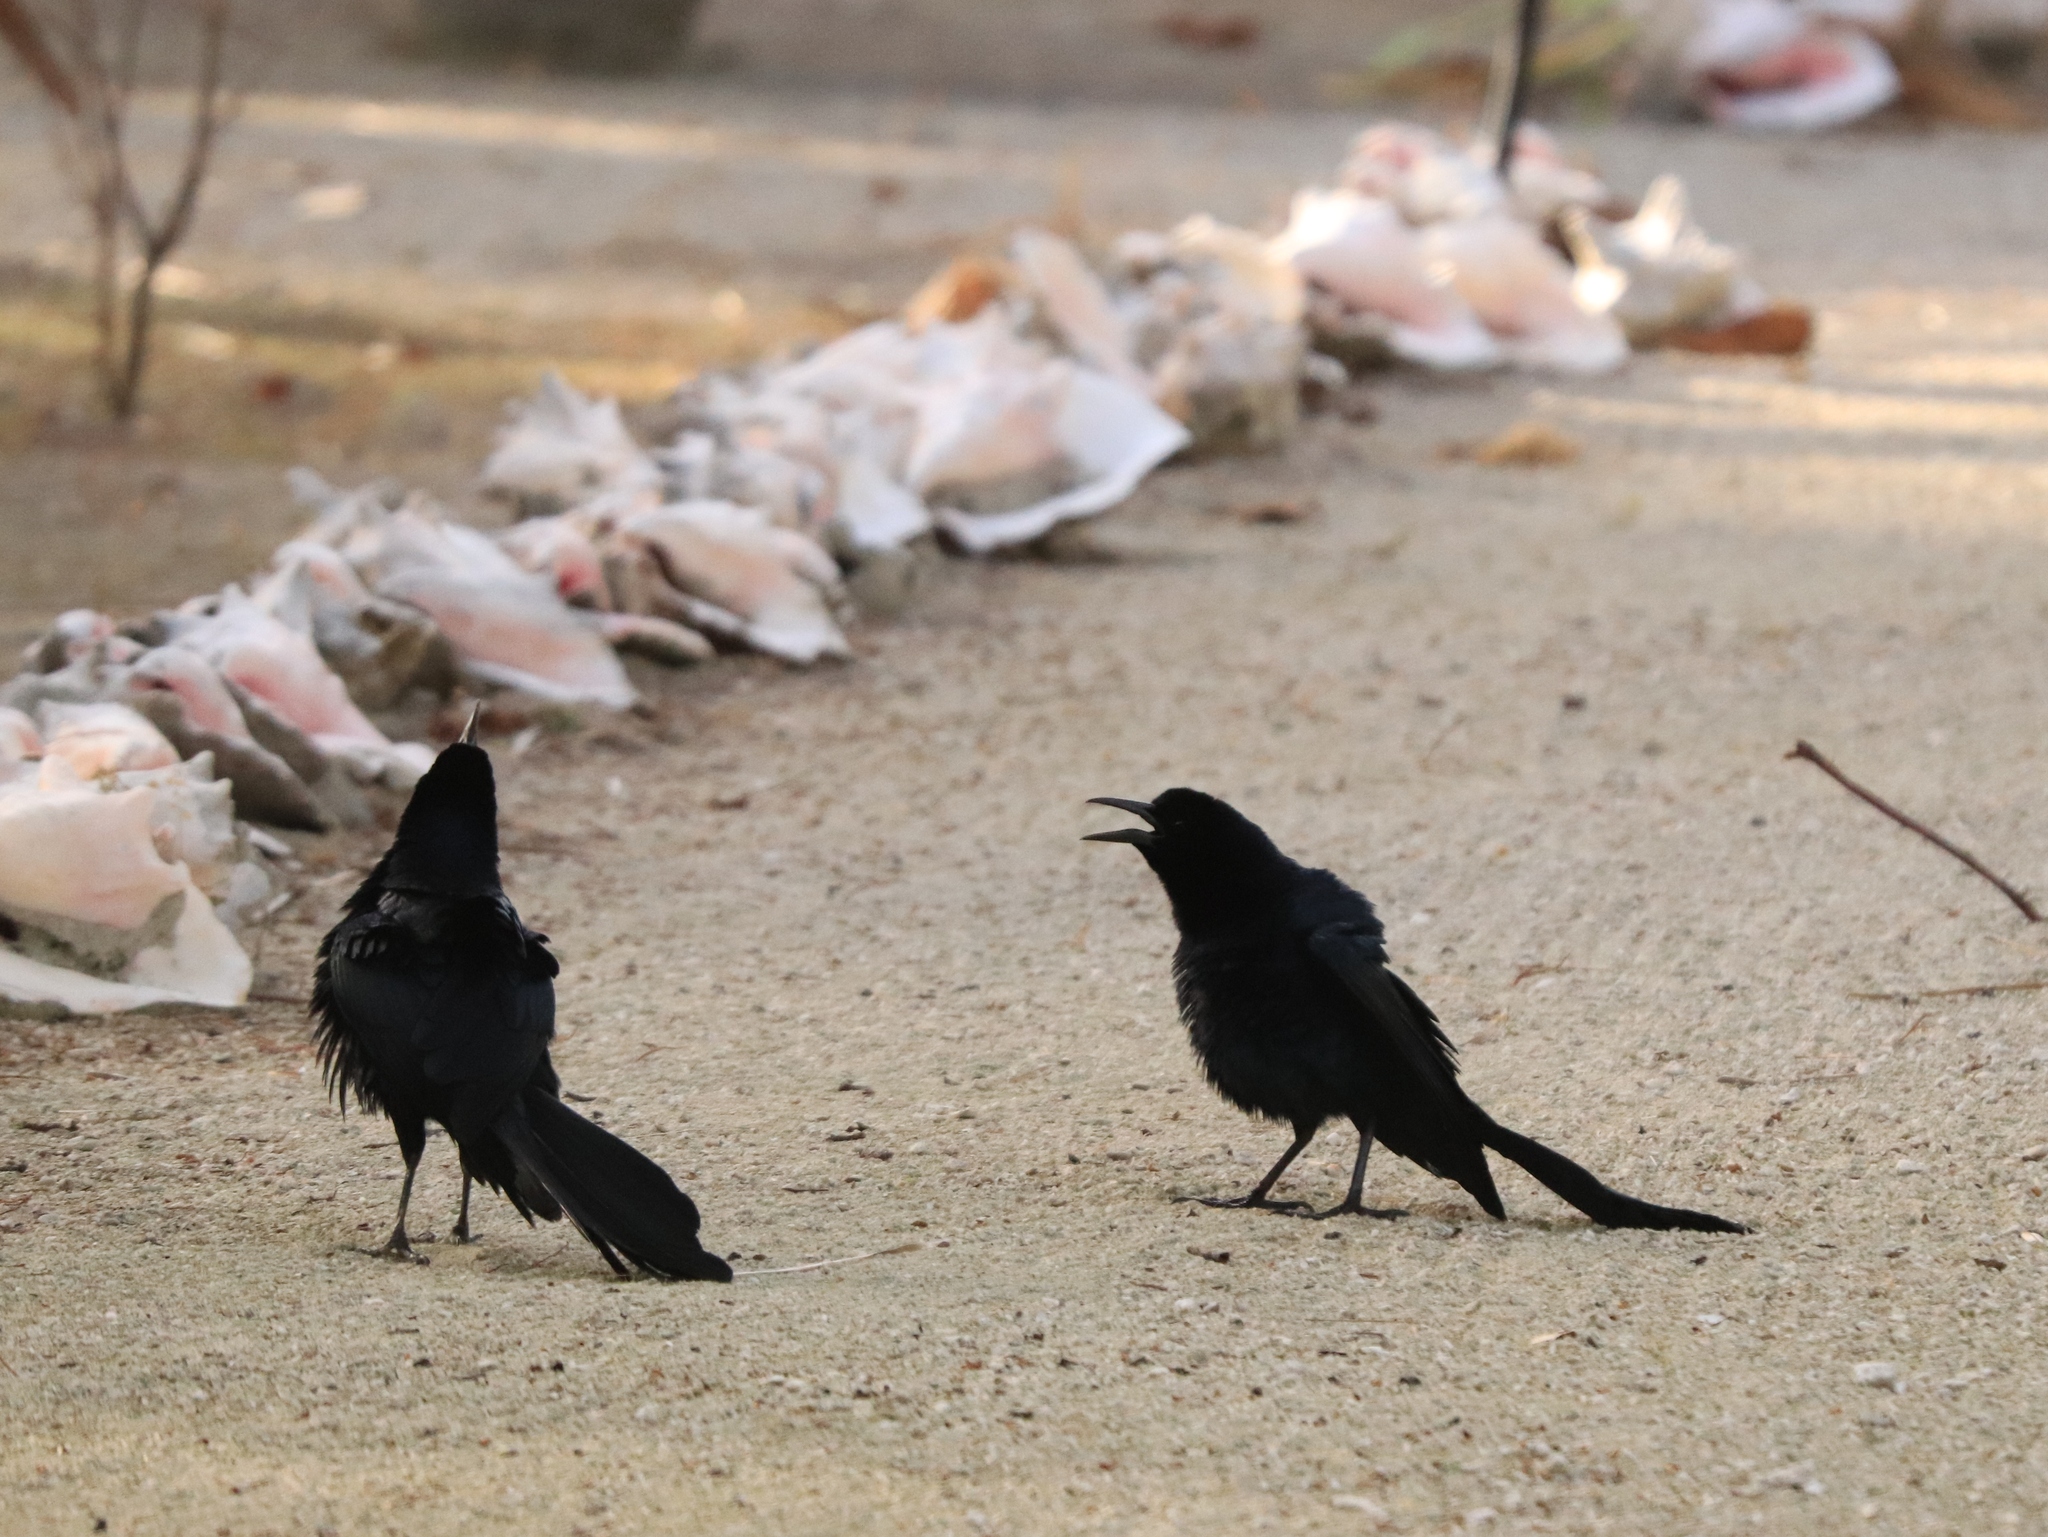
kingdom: Animalia
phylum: Chordata
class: Aves
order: Passeriformes
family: Icteridae
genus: Quiscalus
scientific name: Quiscalus mexicanus
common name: Great-tailed grackle
